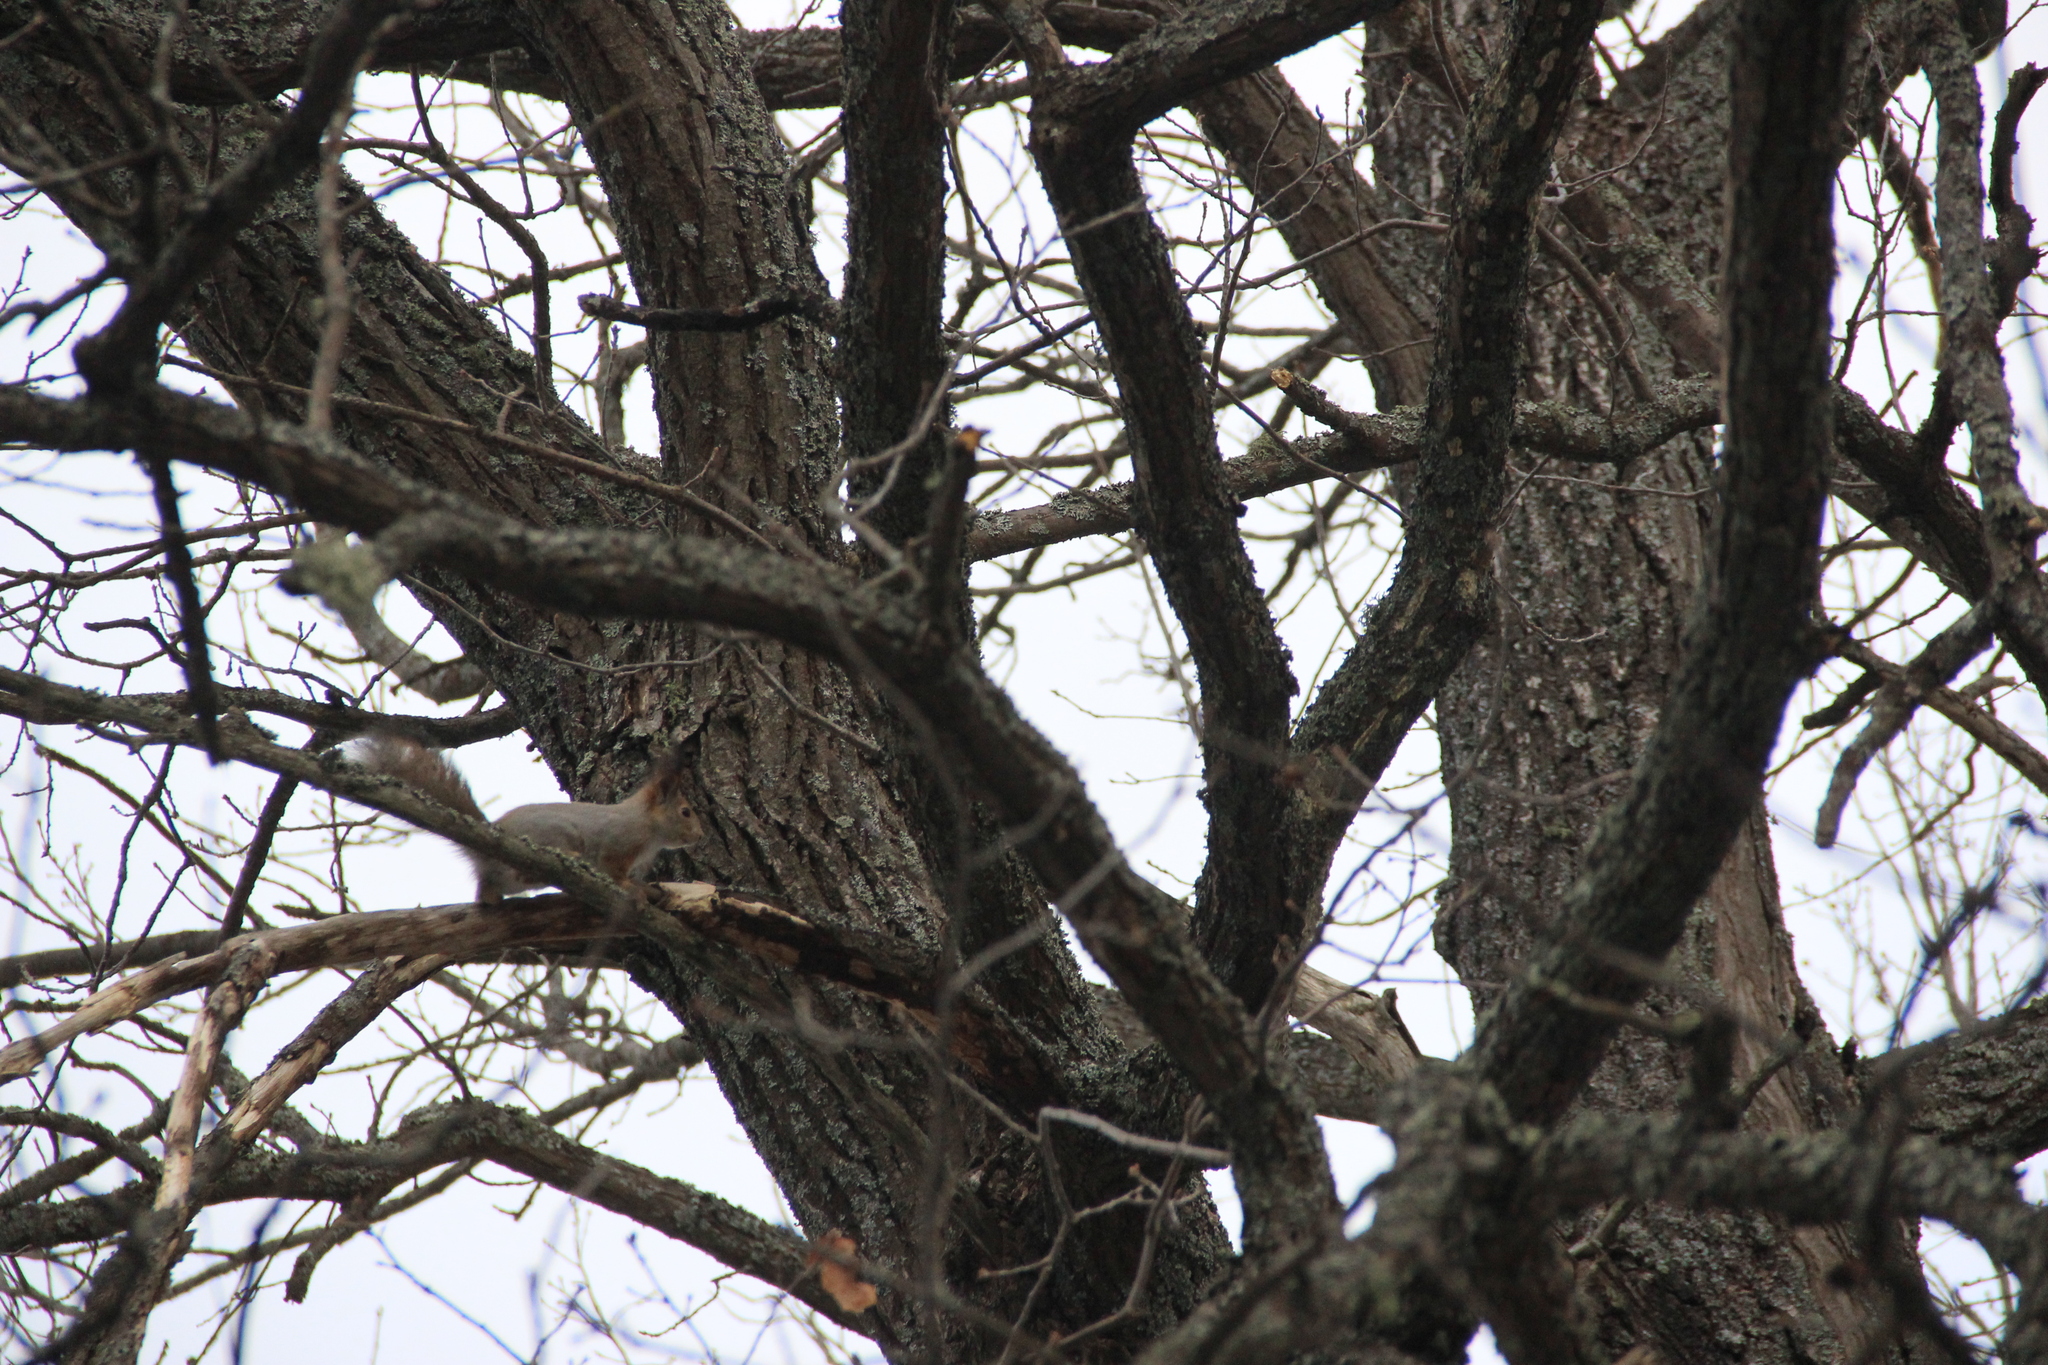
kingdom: Animalia
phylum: Chordata
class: Mammalia
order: Rodentia
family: Sciuridae
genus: Sciurus
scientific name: Sciurus vulgaris
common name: Eurasian red squirrel
